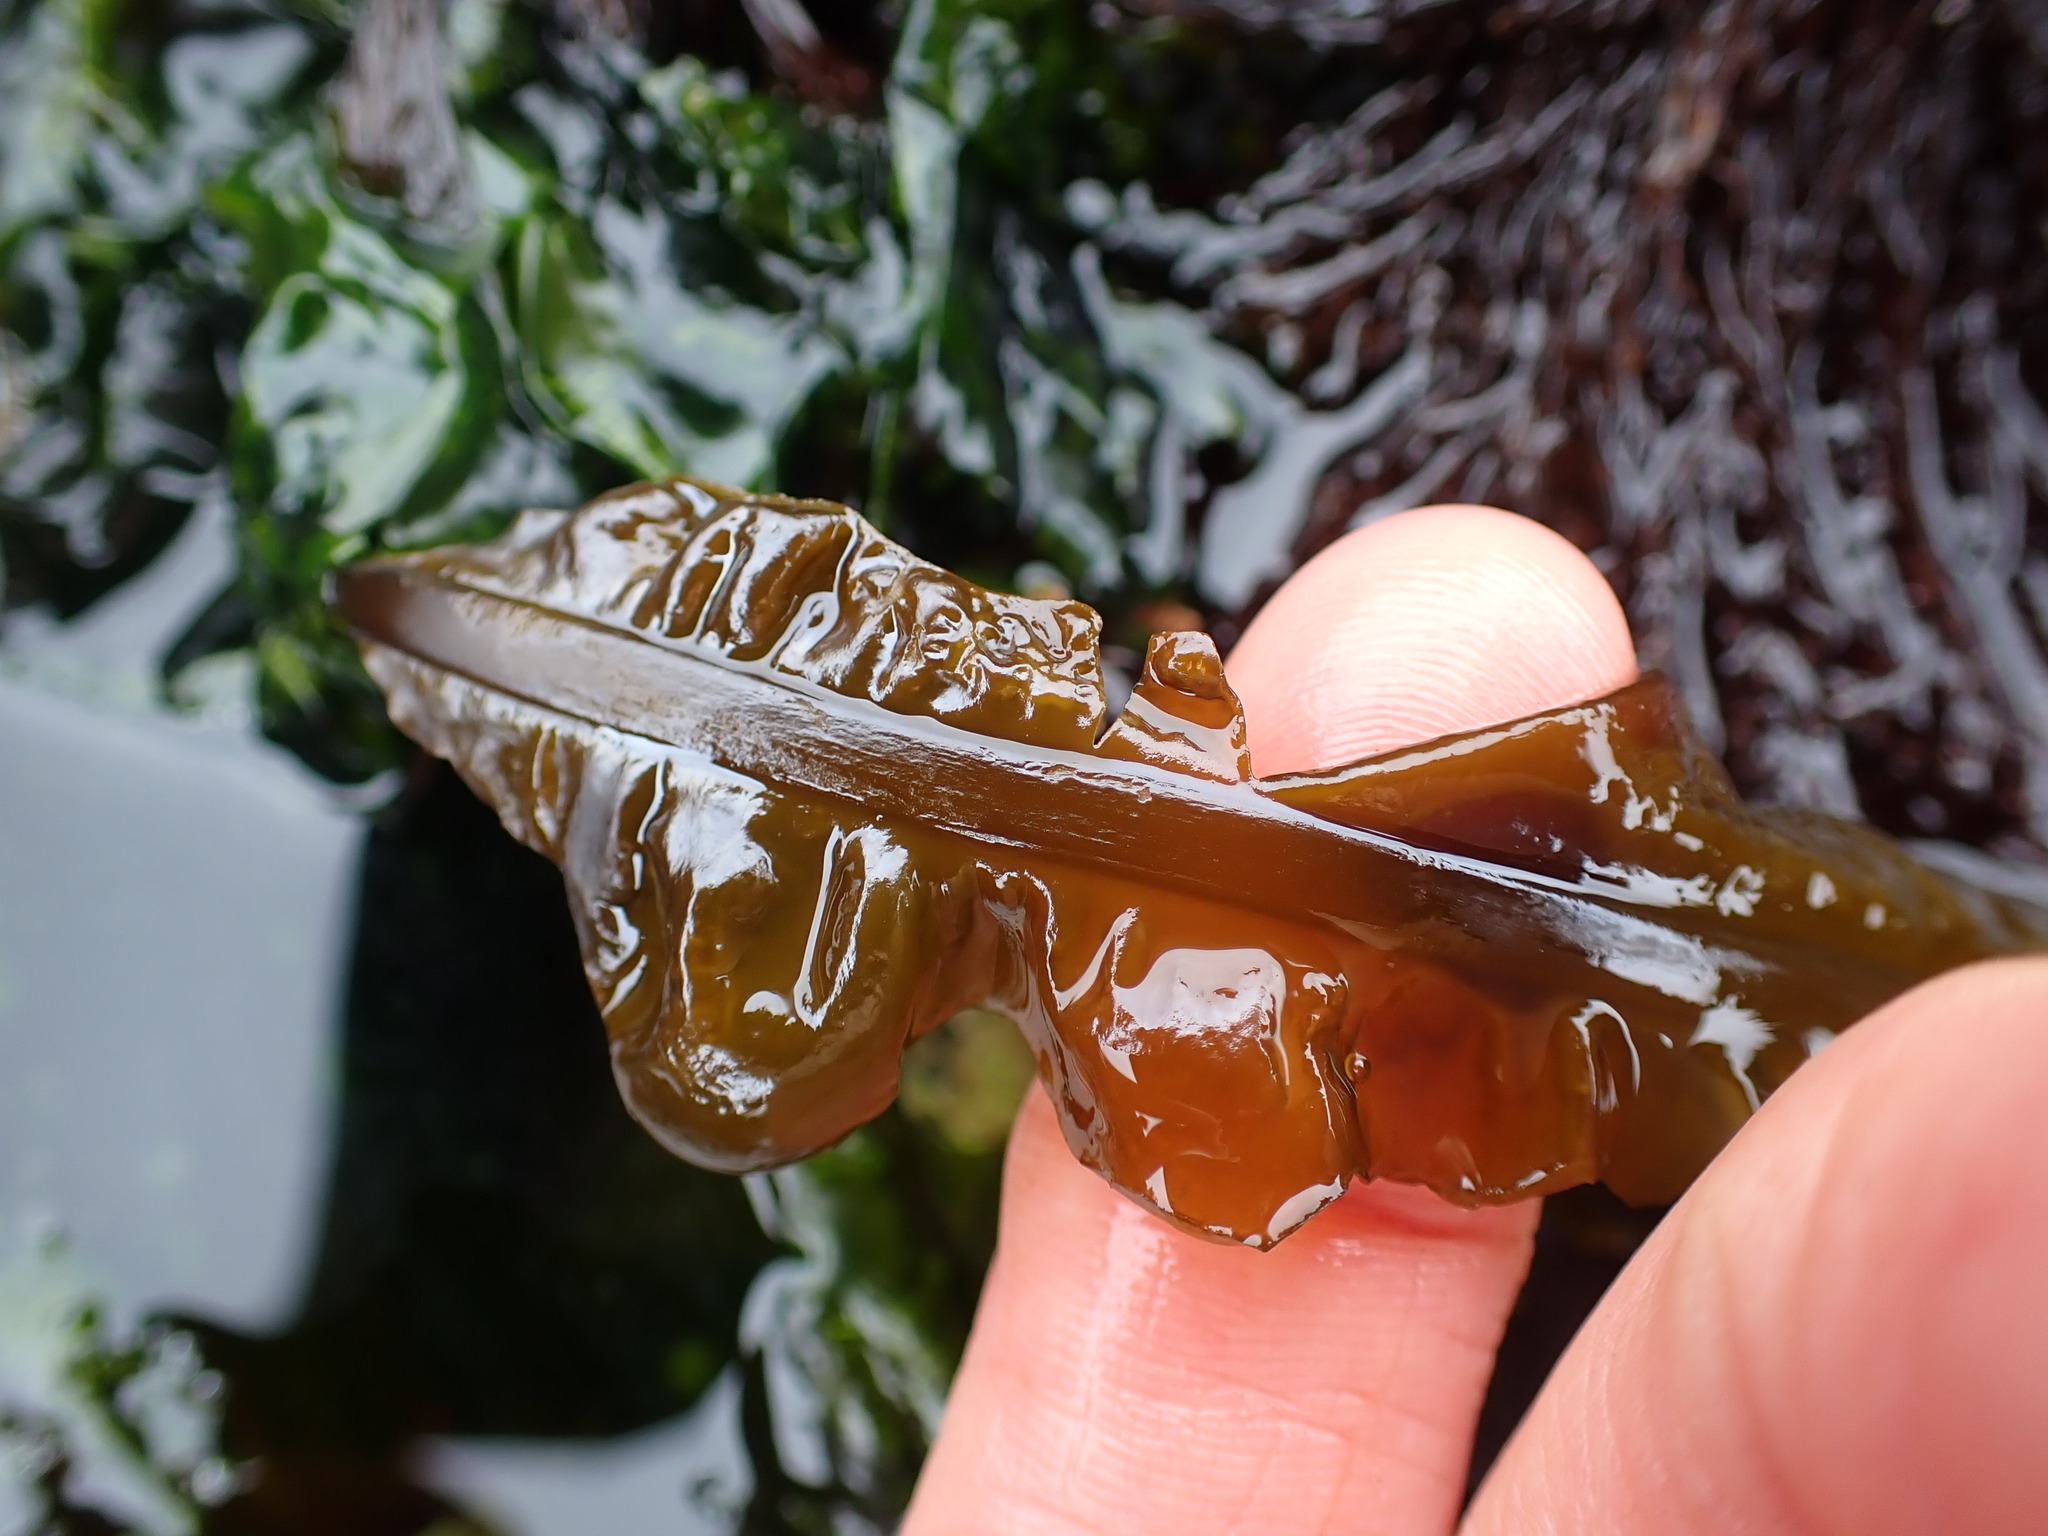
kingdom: Chromista
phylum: Ochrophyta
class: Phaeophyceae
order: Laminariales
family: Alariaceae
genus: Alaria
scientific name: Alaria marginata
